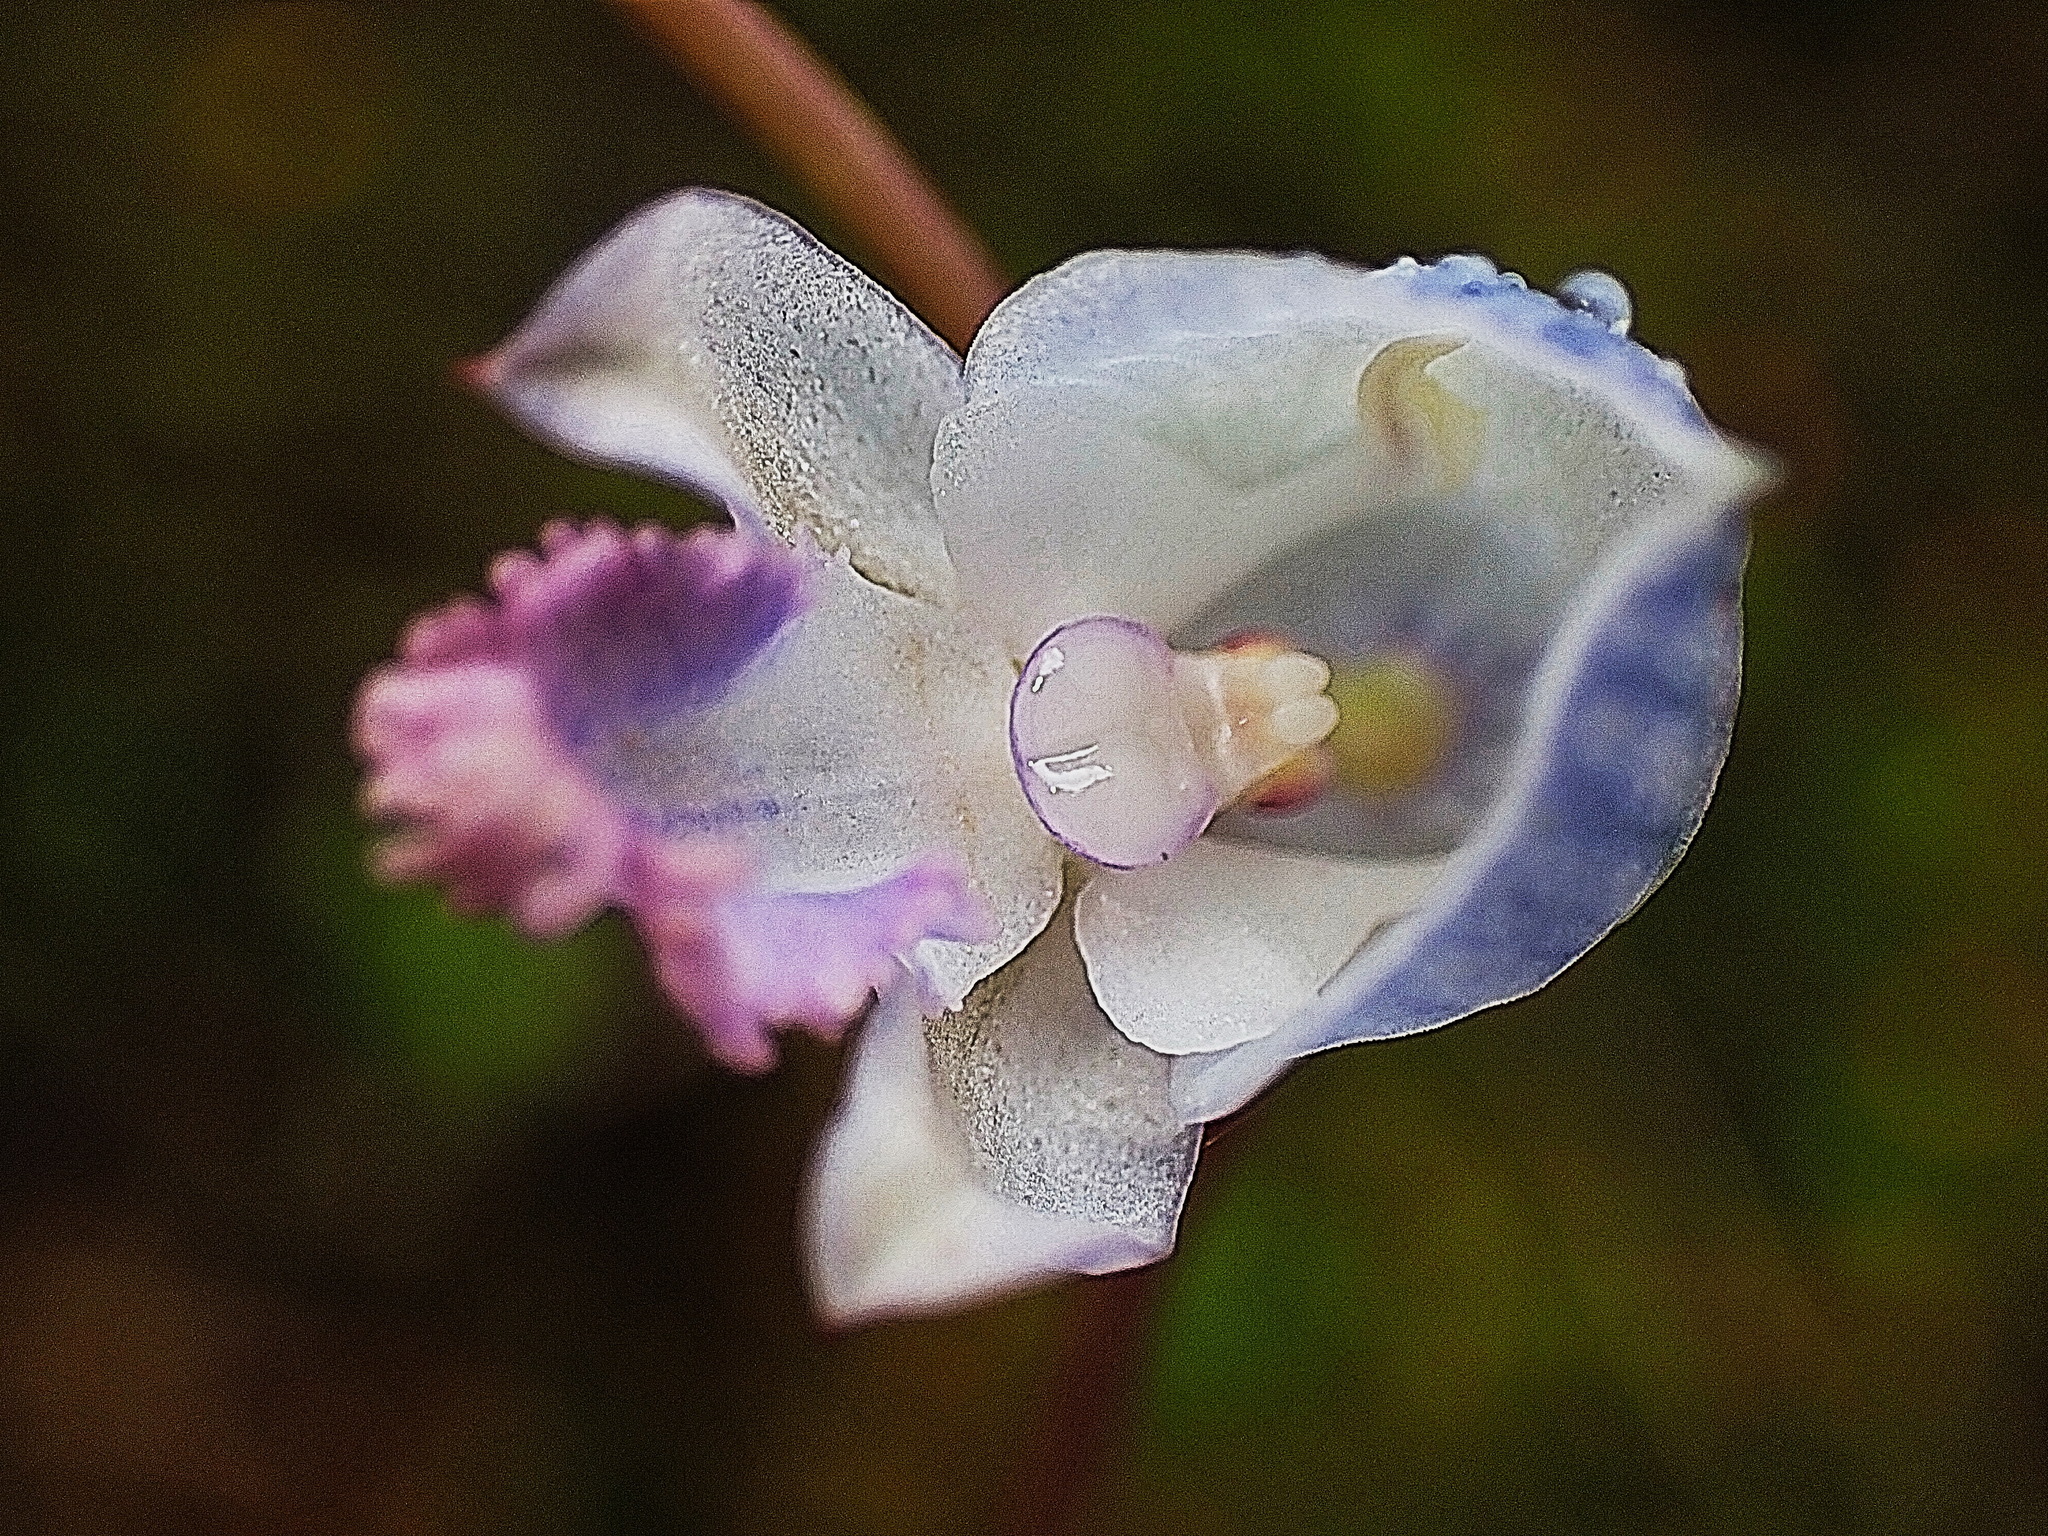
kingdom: Plantae
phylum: Tracheophyta
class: Liliopsida
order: Asparagales
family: Orchidaceae
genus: Disa
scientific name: Disa hians
